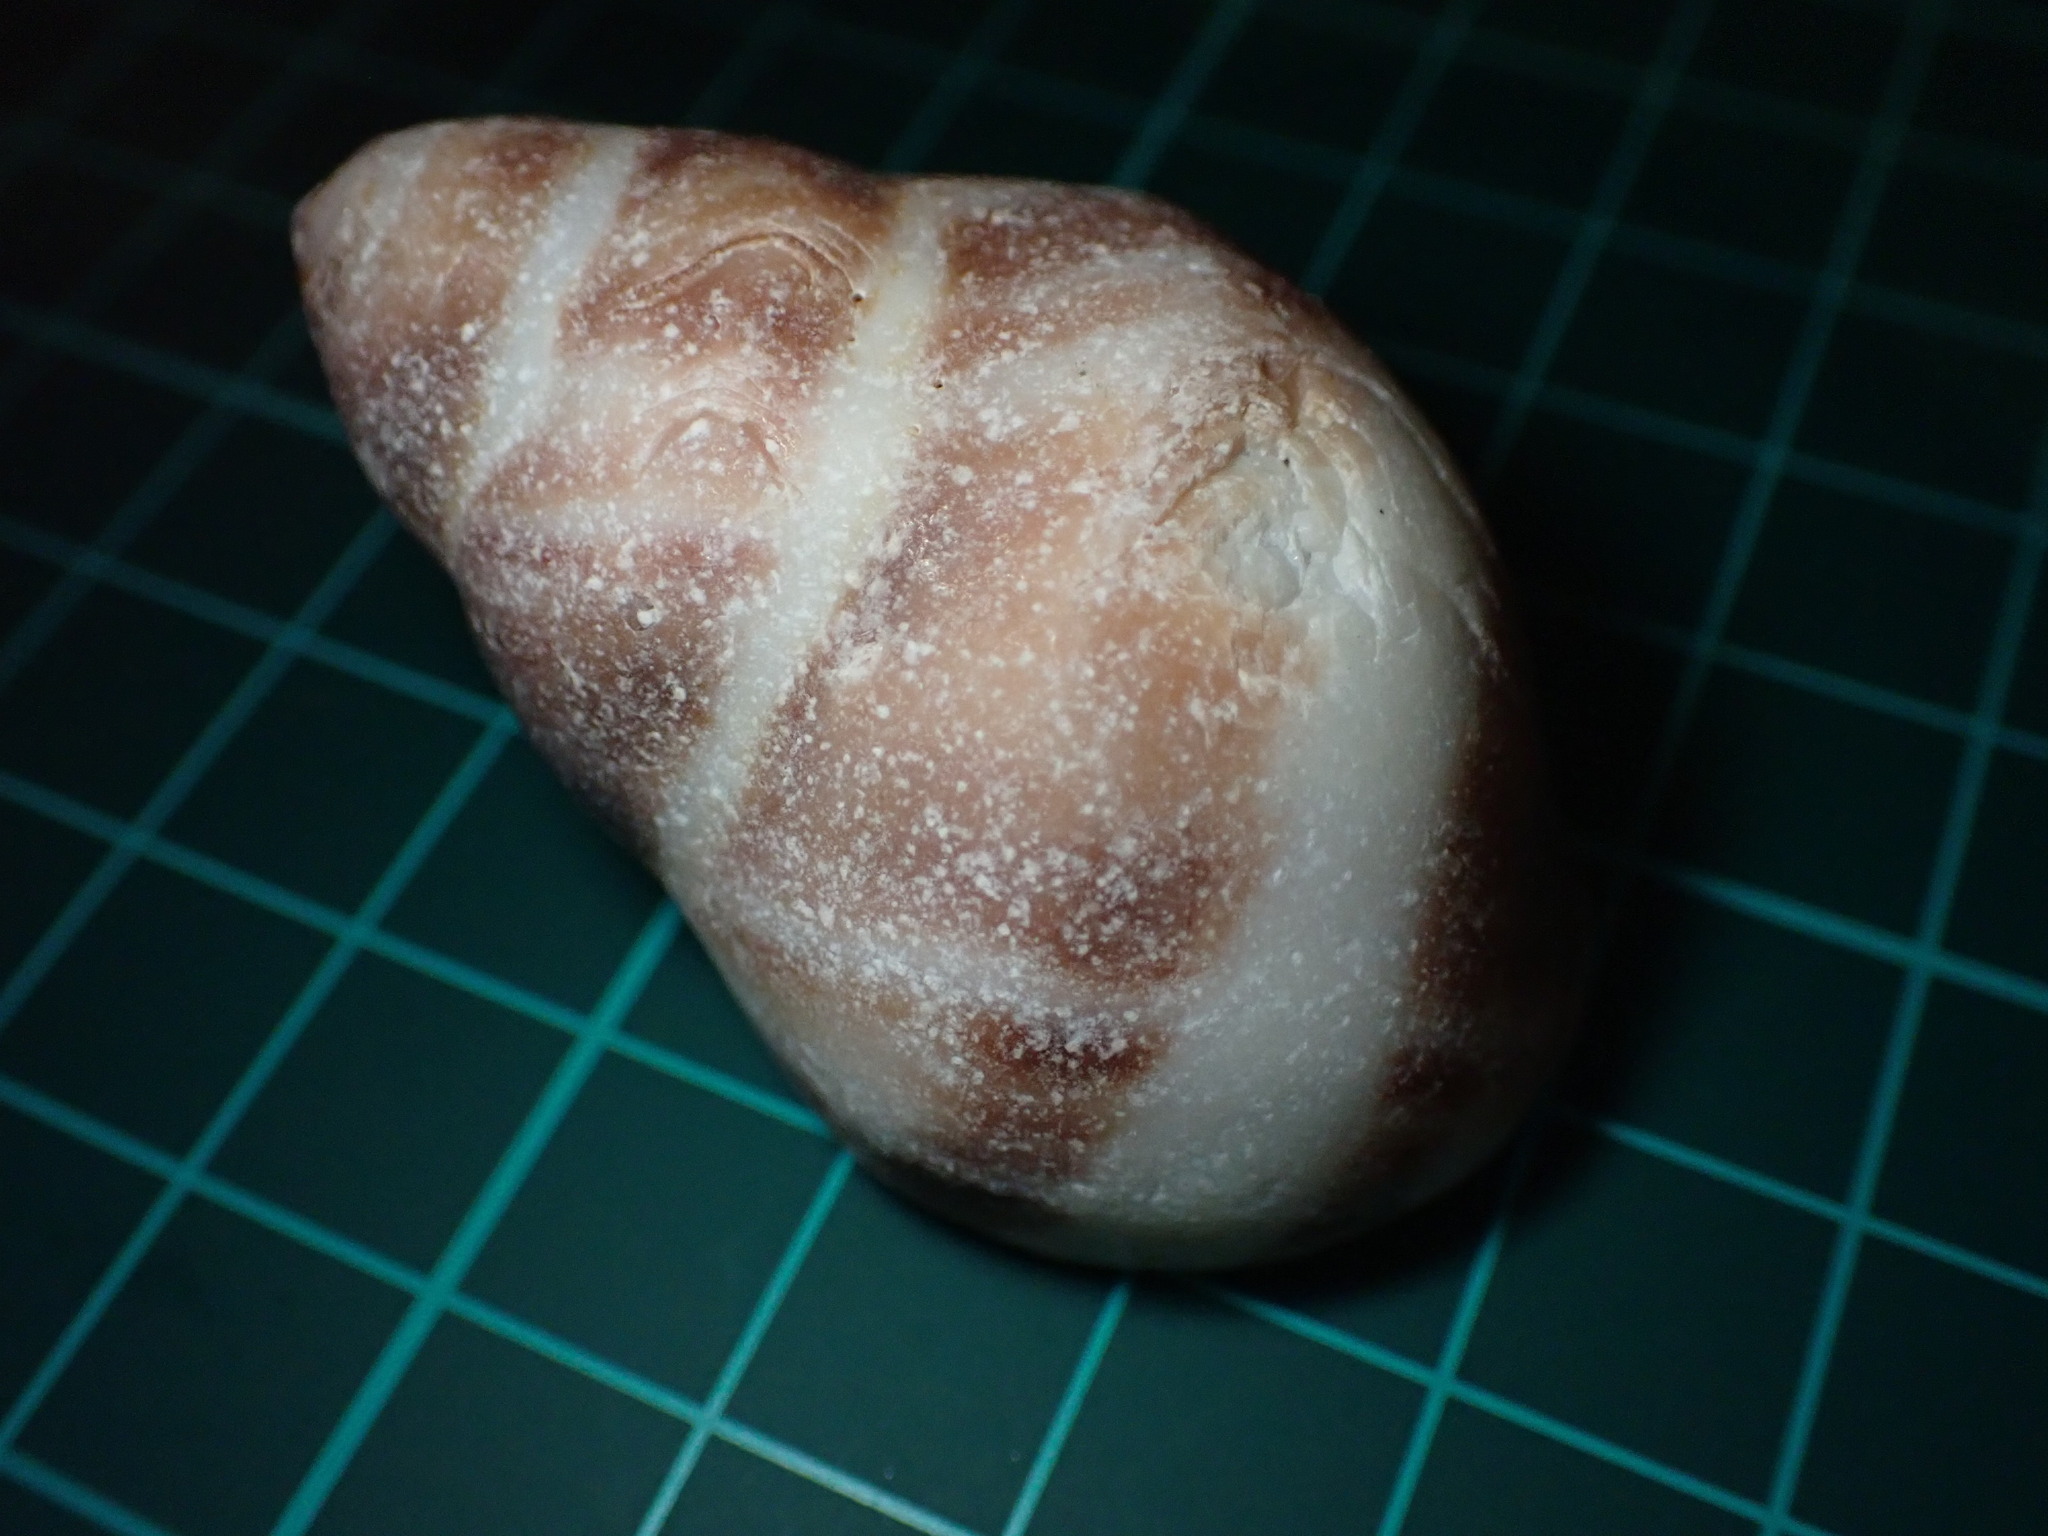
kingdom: Animalia
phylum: Mollusca
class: Gastropoda
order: Neogastropoda
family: Muricidae
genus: Nucella
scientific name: Nucella lamellosa
